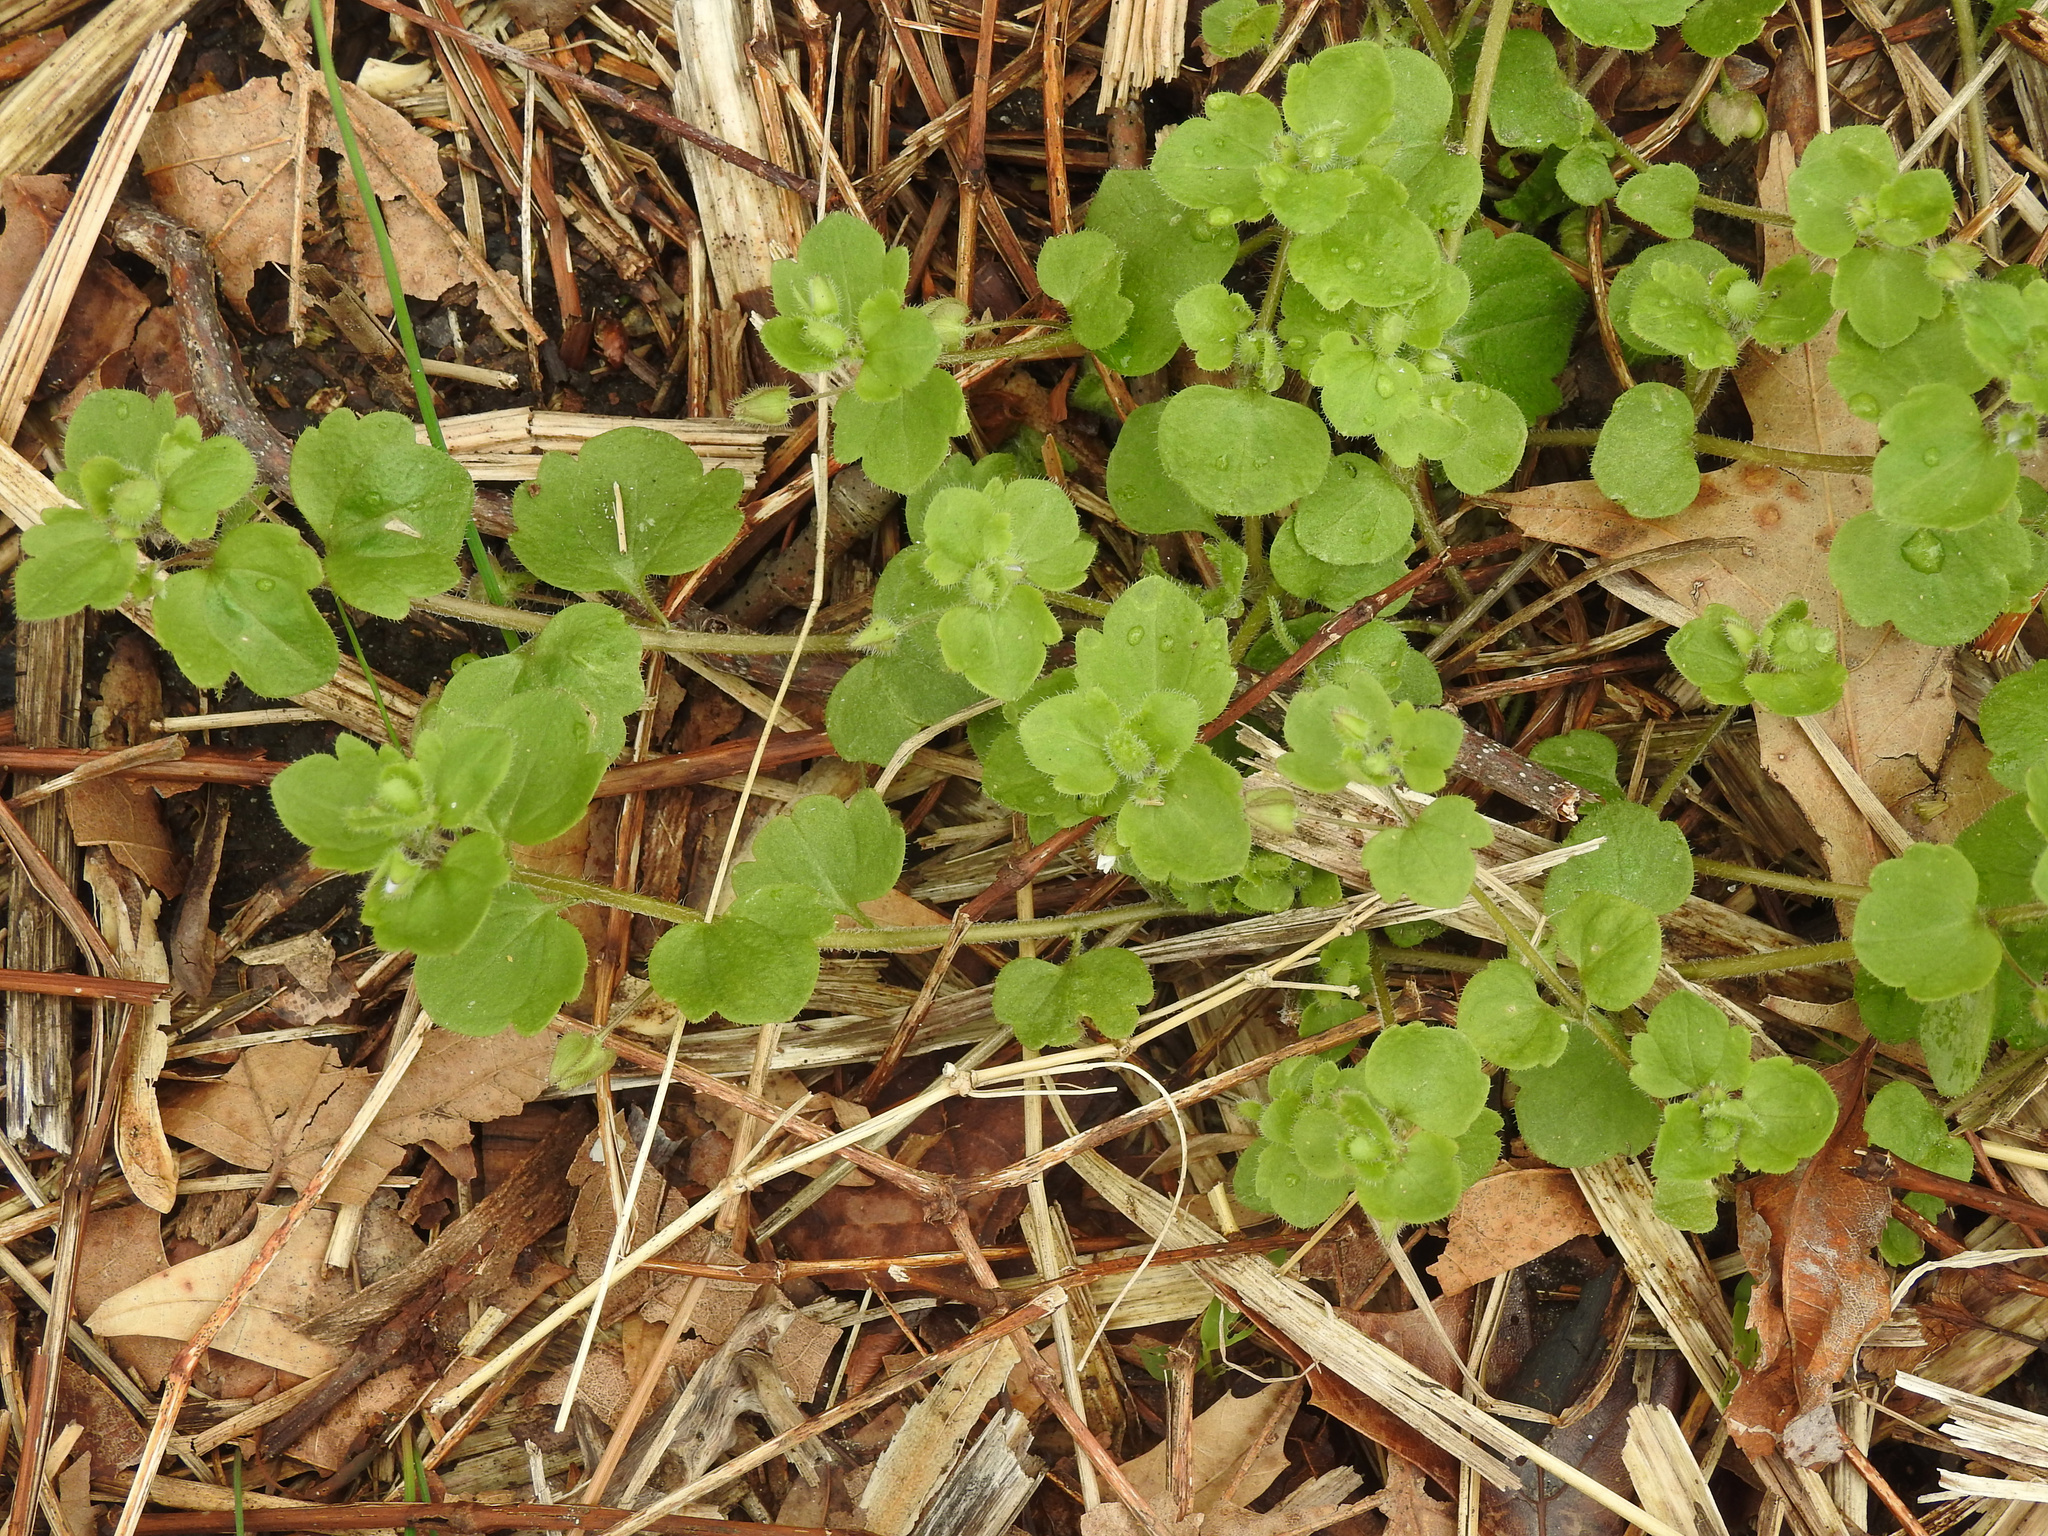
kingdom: Plantae
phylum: Tracheophyta
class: Magnoliopsida
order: Lamiales
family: Plantaginaceae
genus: Veronica
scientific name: Veronica hederifolia
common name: Ivy-leaved speedwell
